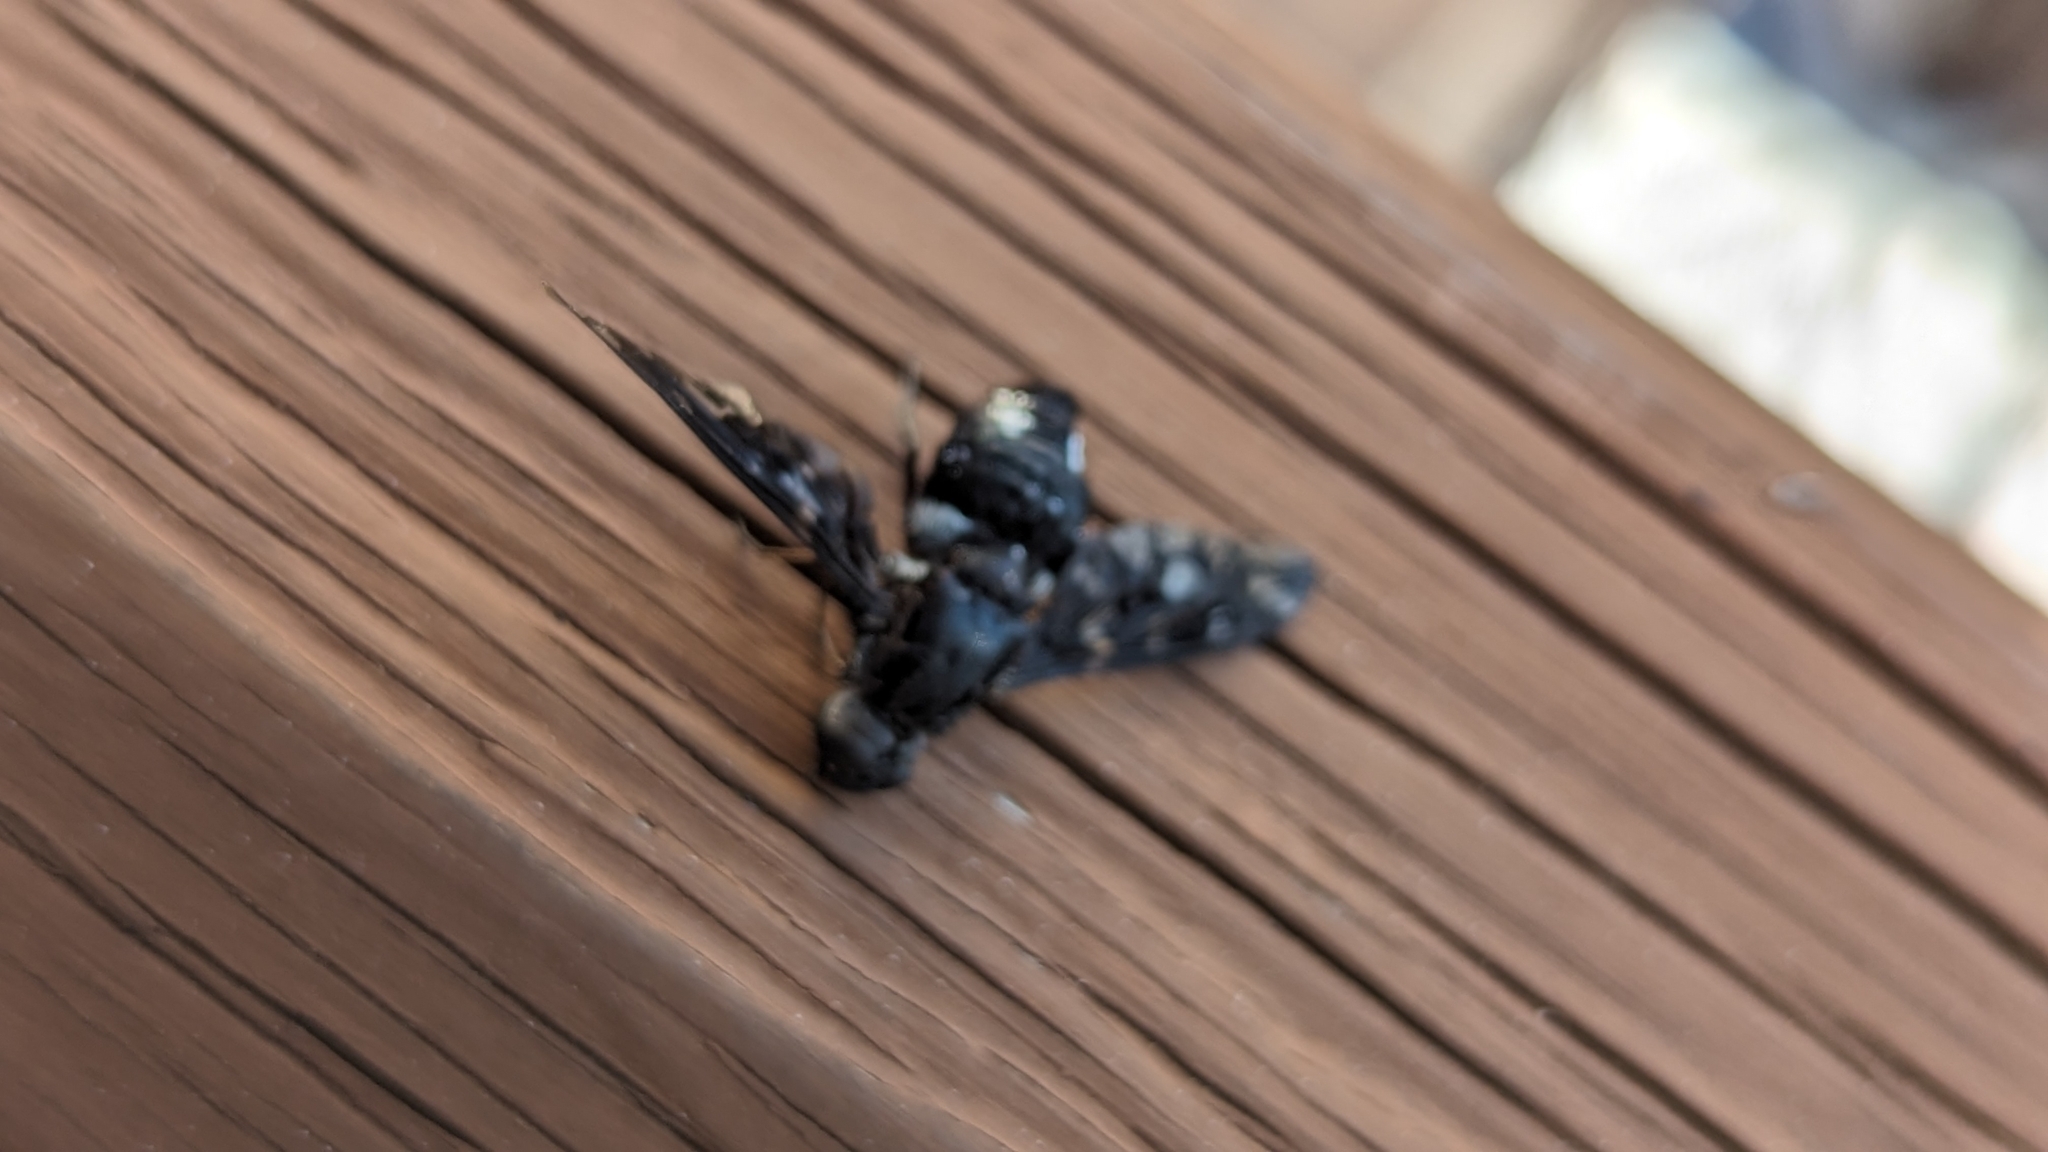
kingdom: Animalia
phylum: Arthropoda
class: Insecta
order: Diptera
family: Bombyliidae
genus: Xenox
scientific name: Xenox tigrinus
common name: Tiger bee fly
